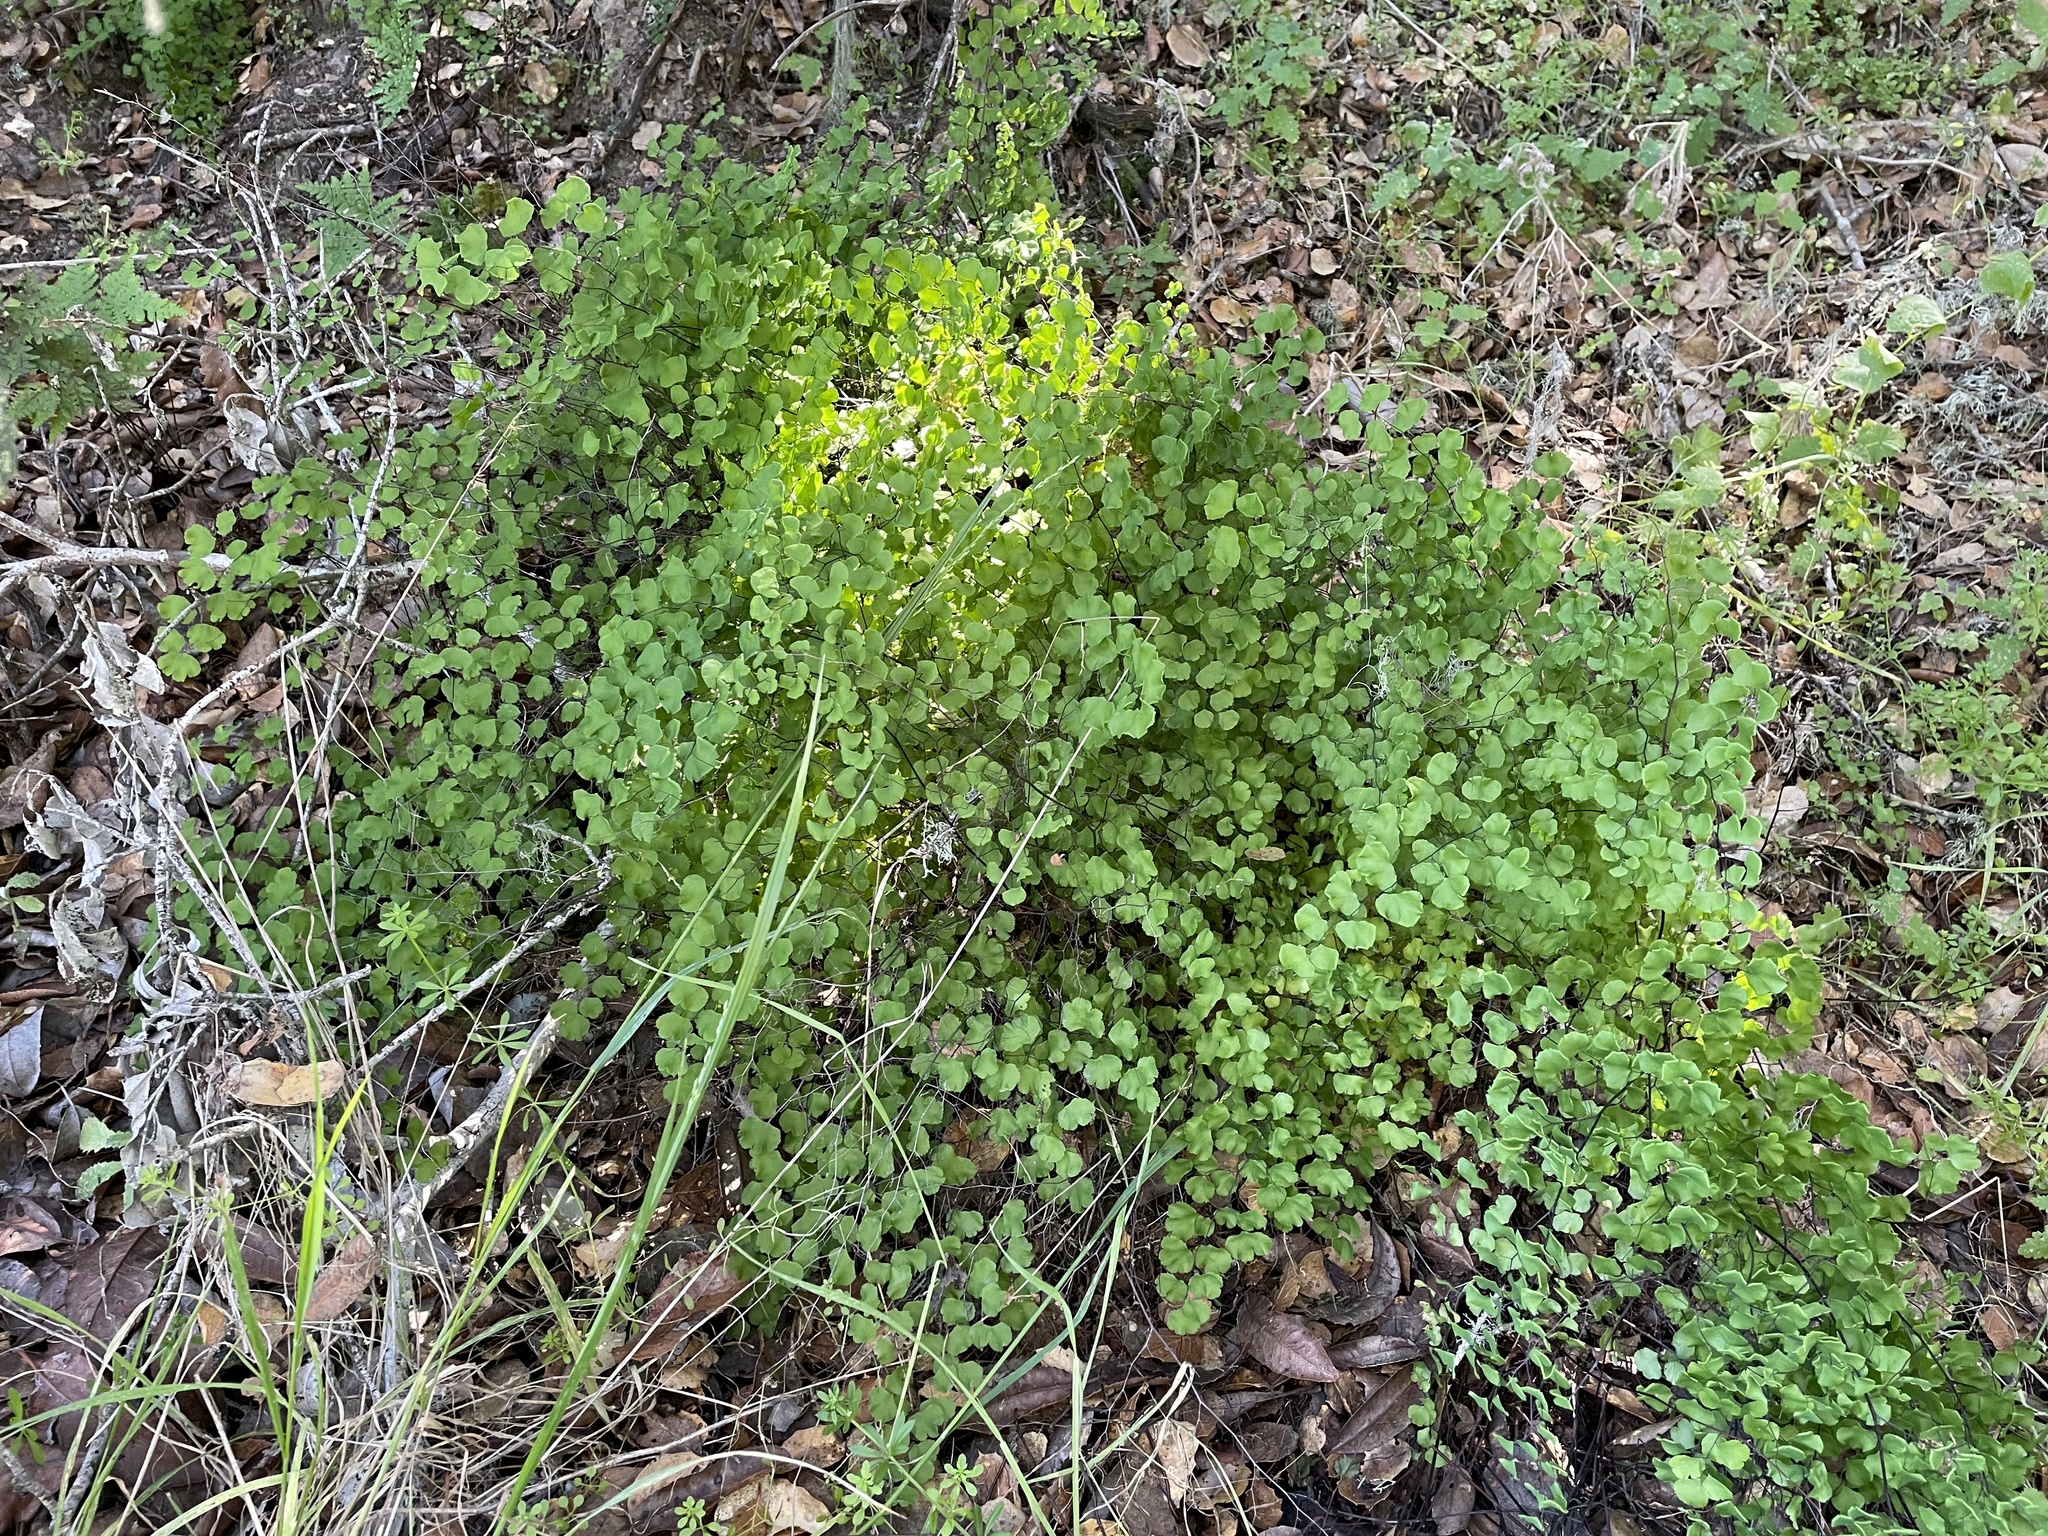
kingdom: Plantae
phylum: Tracheophyta
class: Polypodiopsida
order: Polypodiales
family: Pteridaceae
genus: Adiantum
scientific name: Adiantum jordanii
